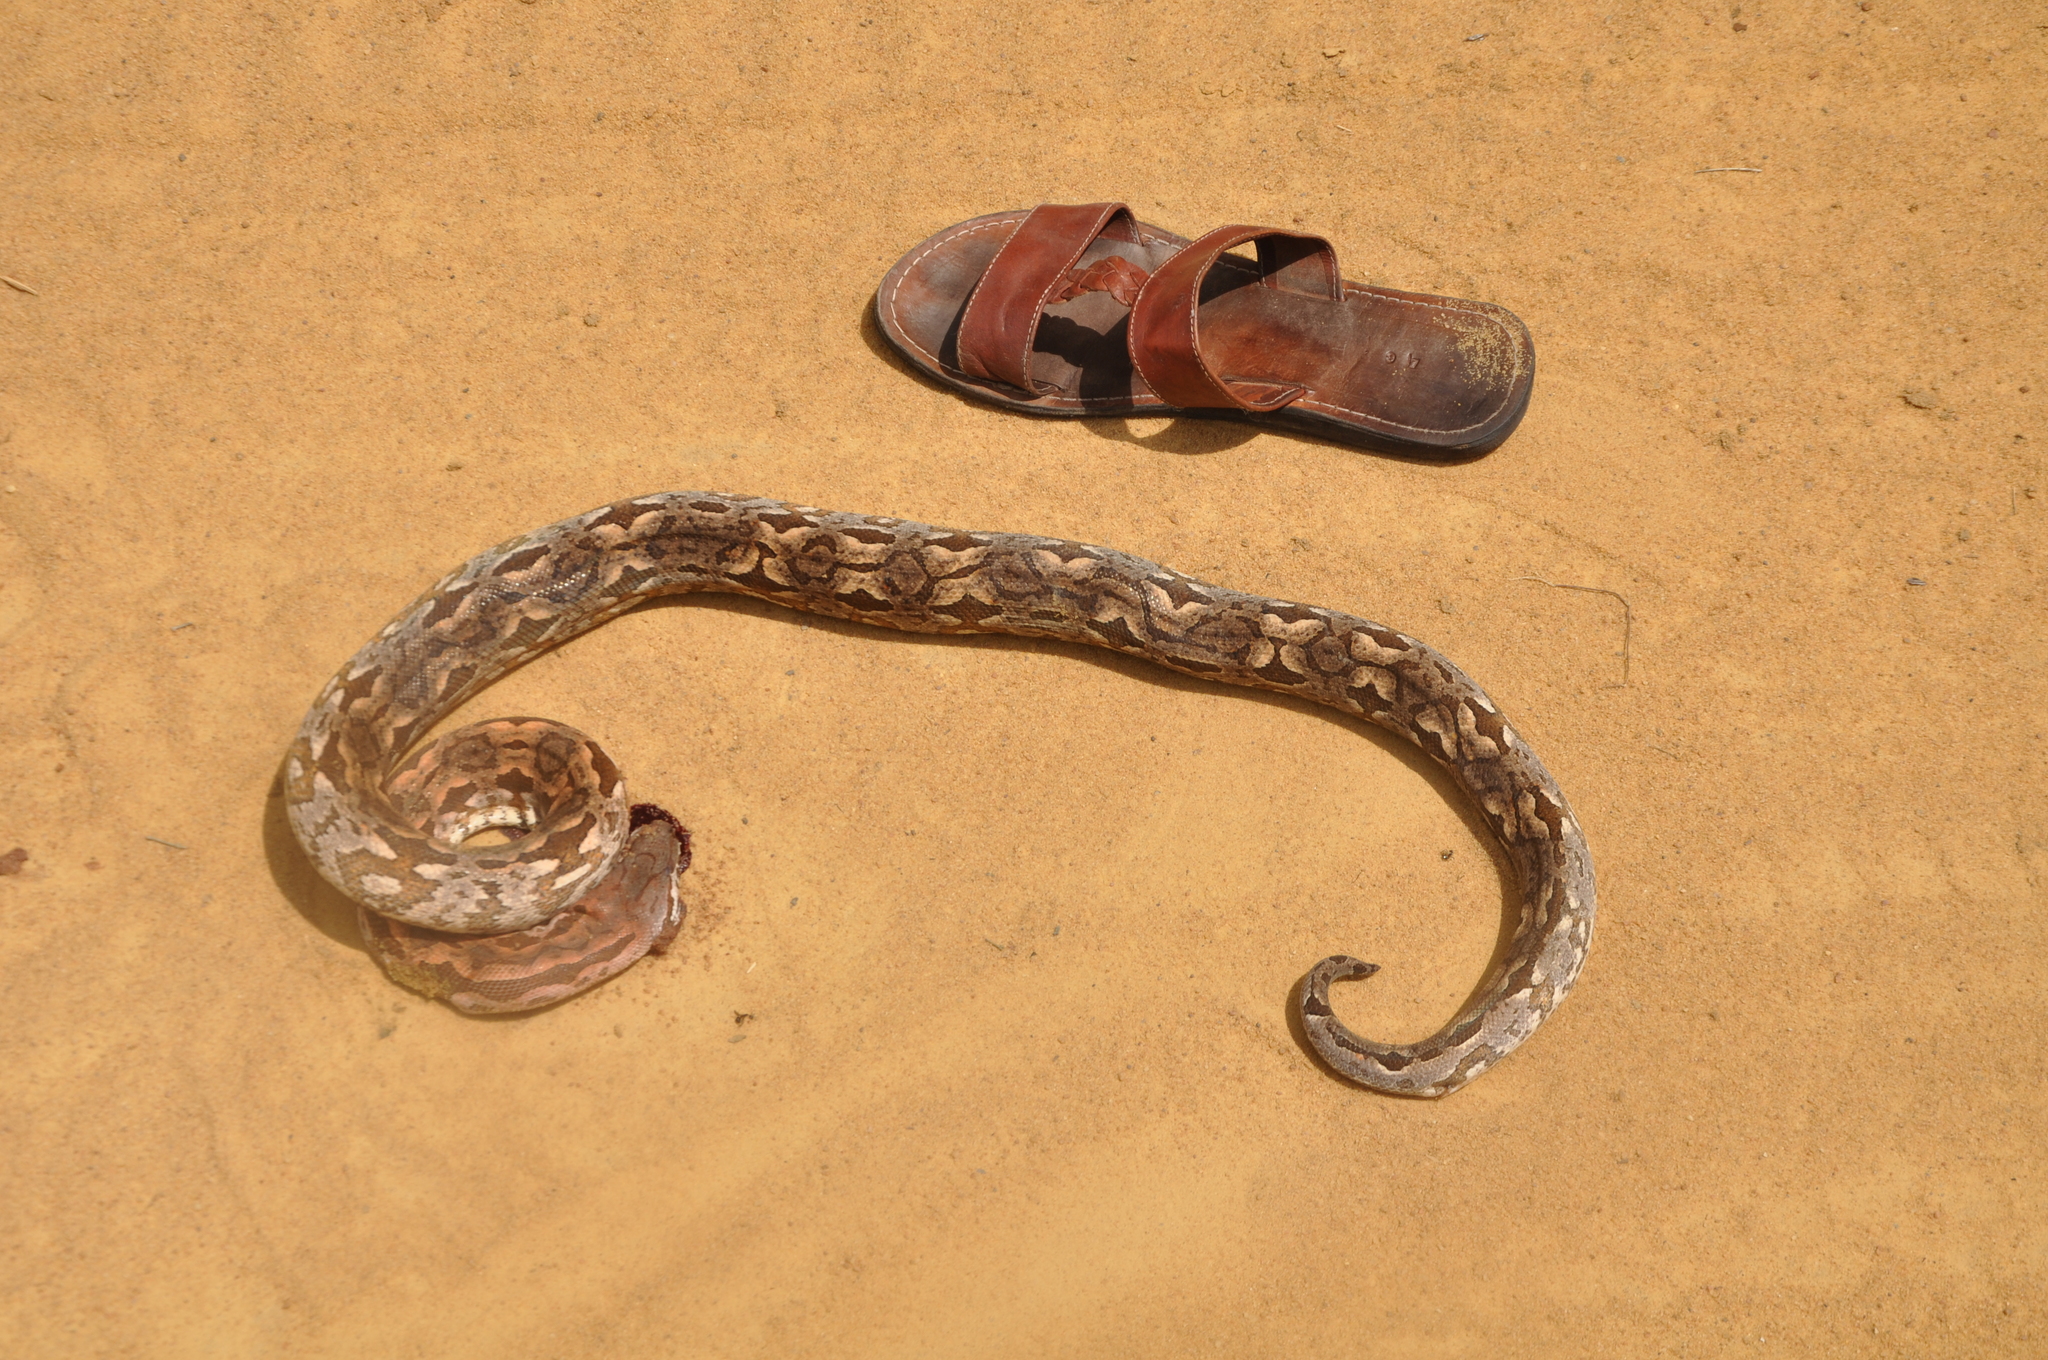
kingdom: Animalia
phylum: Chordata
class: Squamata
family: Boidae
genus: Acrantophis
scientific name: Acrantophis dumerili
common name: Dumeril's boa
